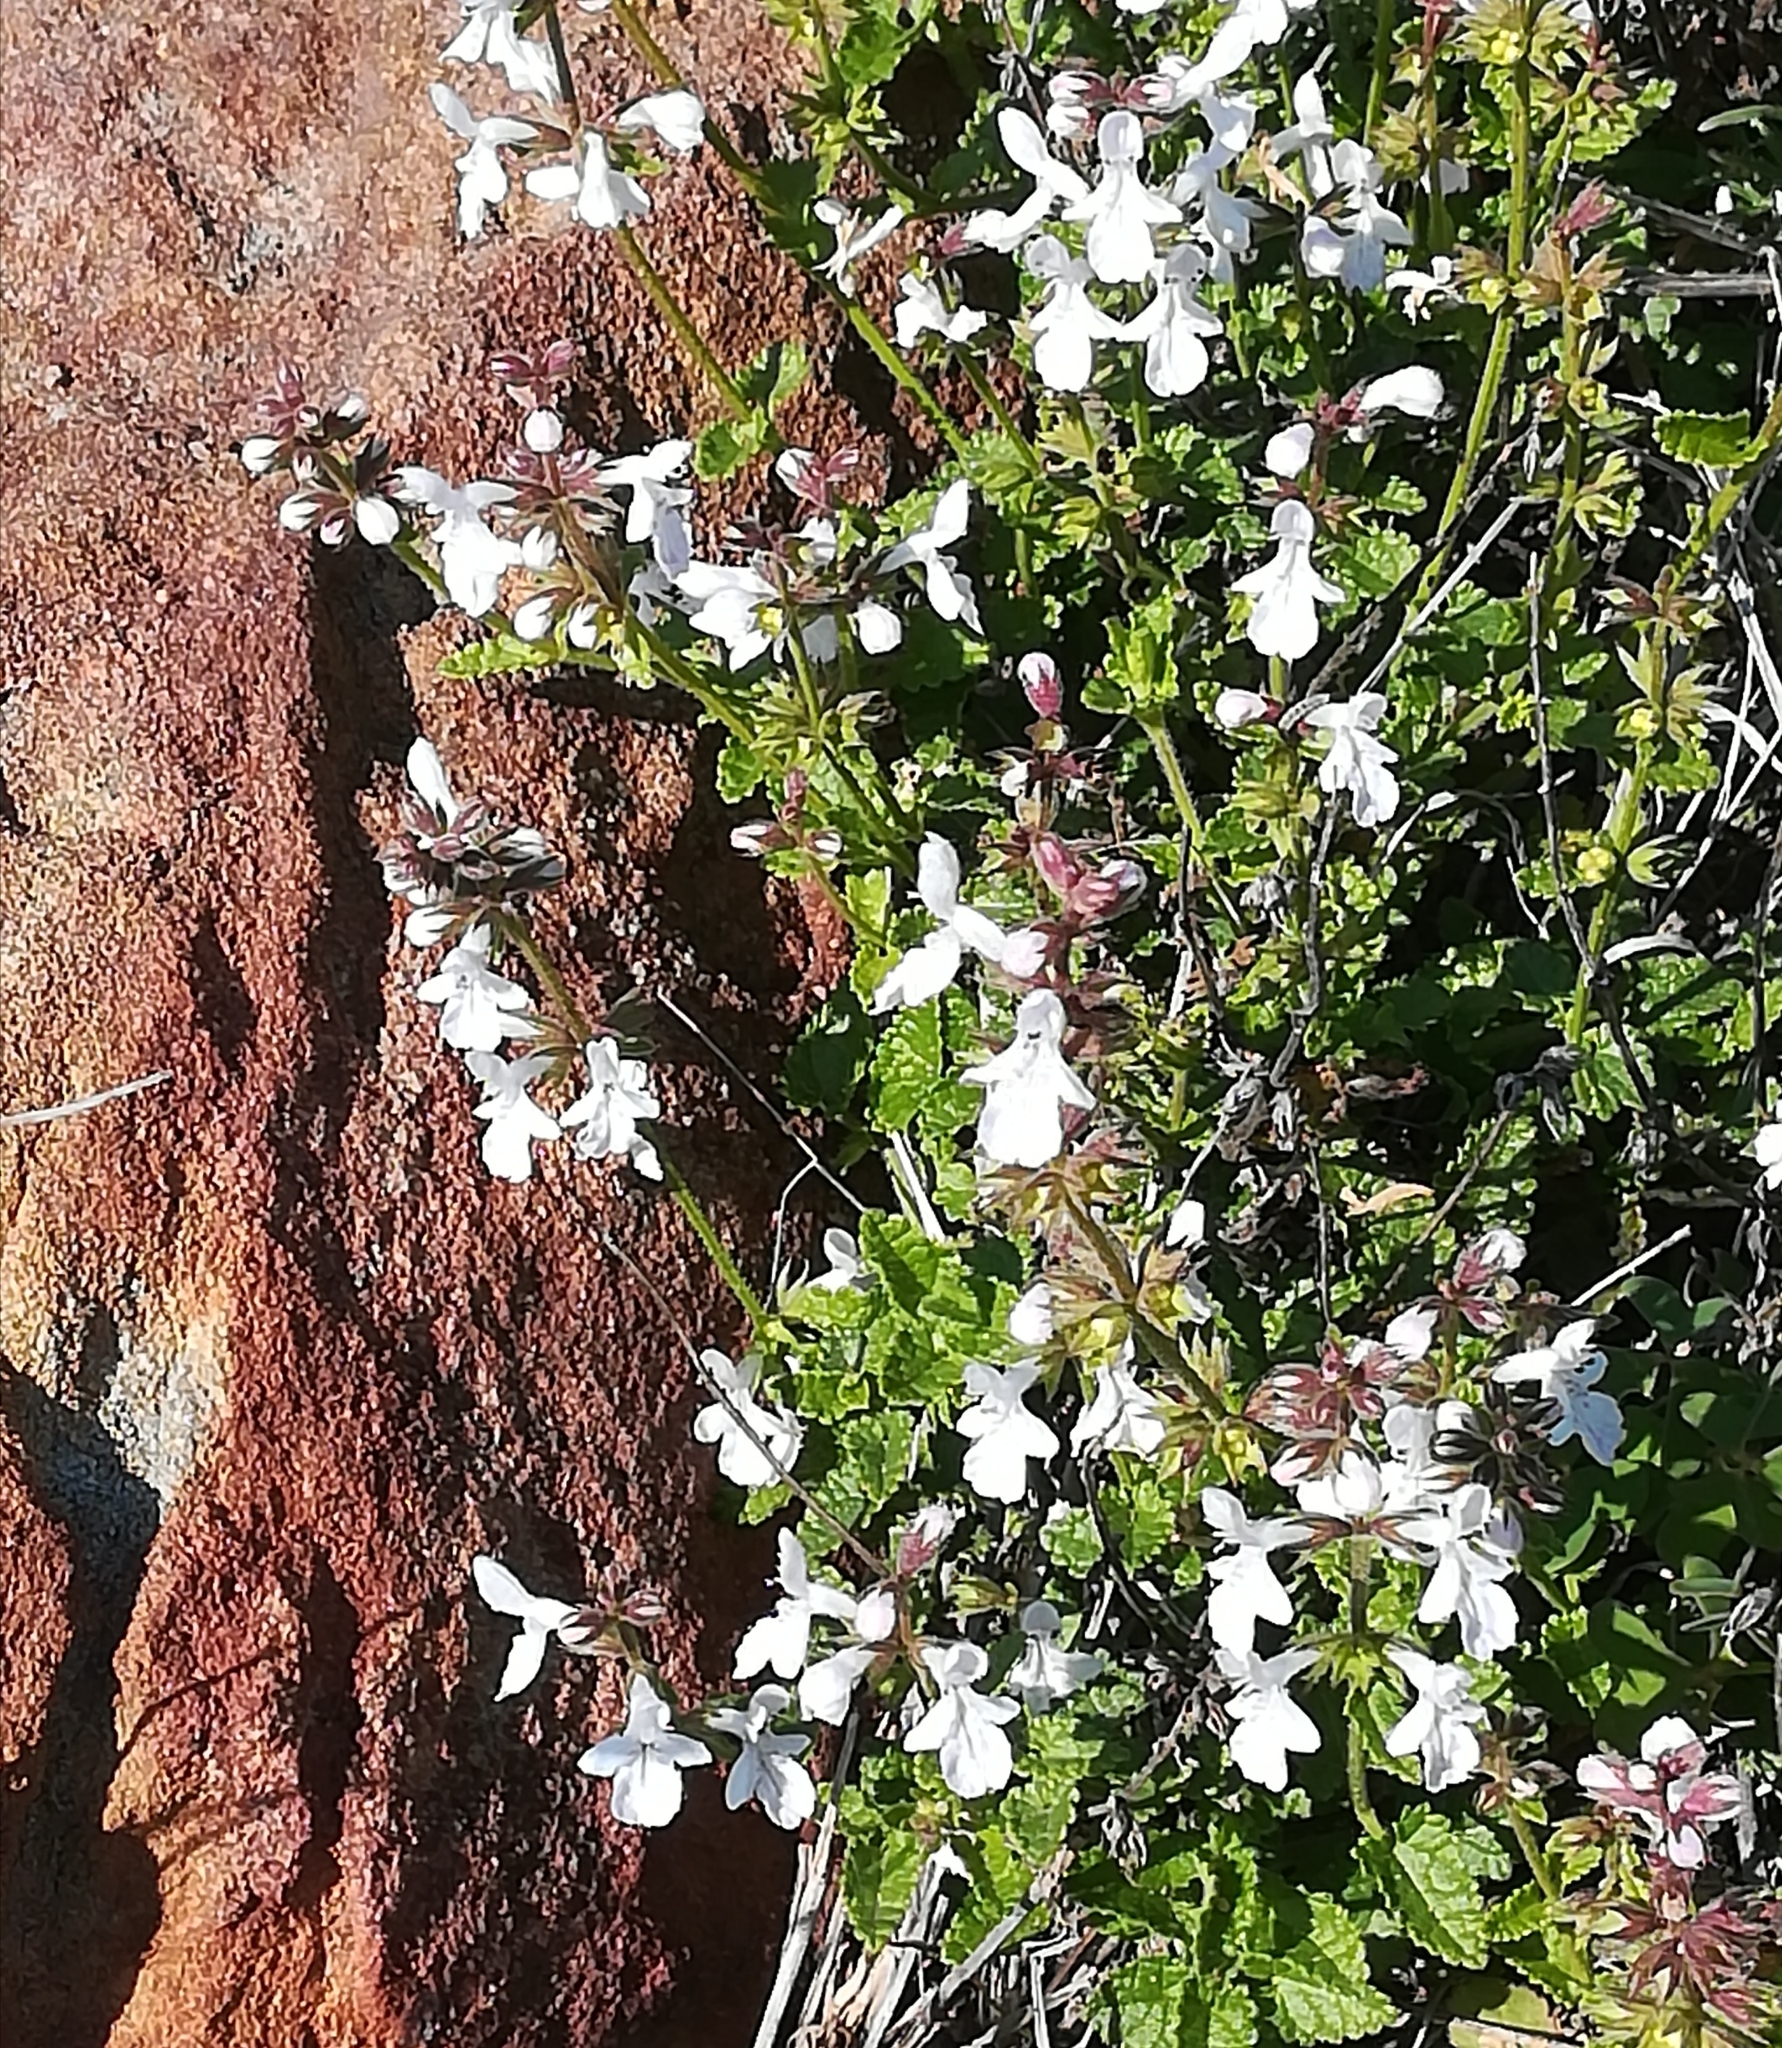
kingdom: Plantae
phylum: Tracheophyta
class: Magnoliopsida
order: Lamiales
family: Lamiaceae
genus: Stachys
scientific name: Stachys aethiopica
